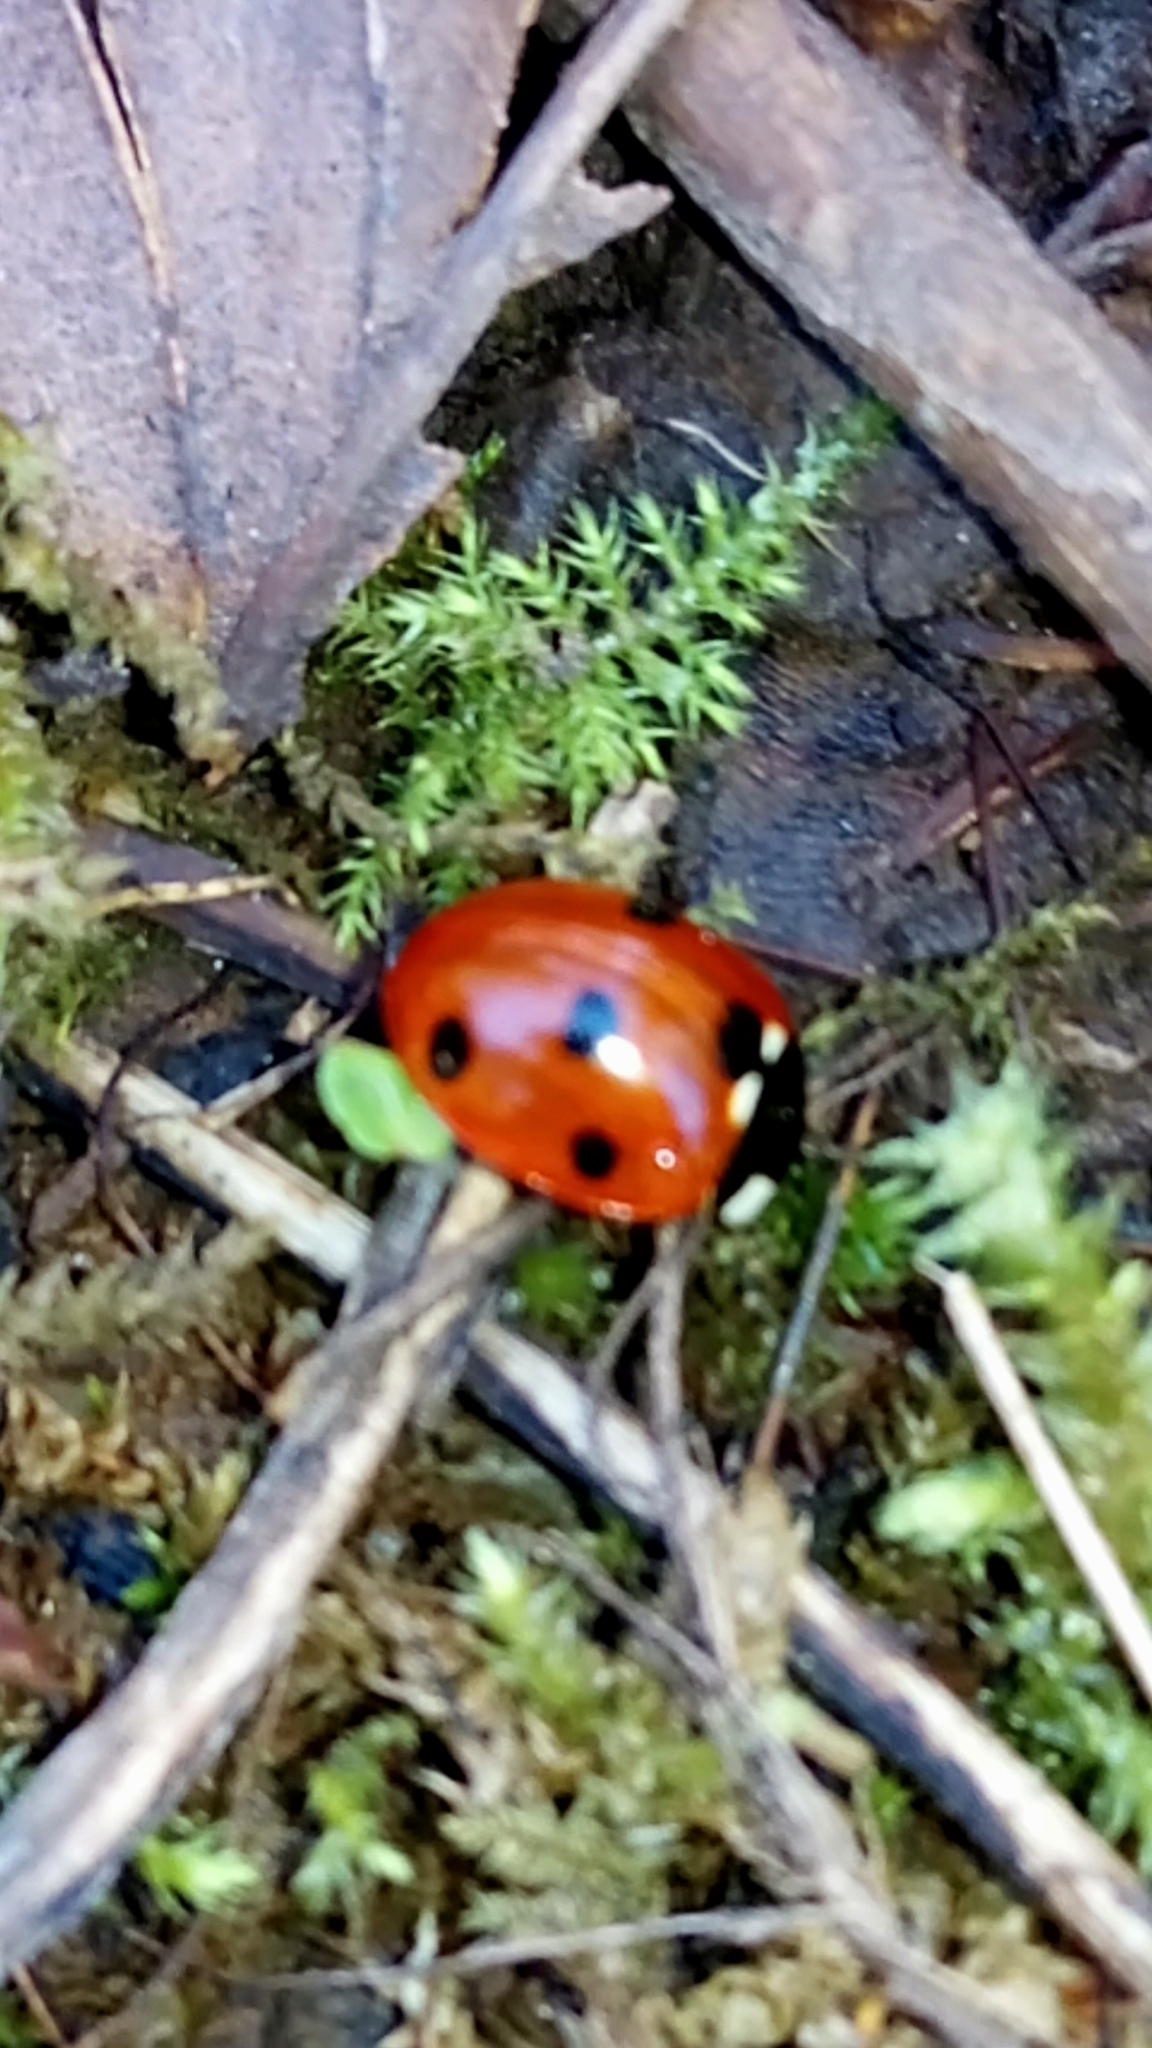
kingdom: Animalia
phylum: Arthropoda
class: Insecta
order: Coleoptera
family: Coccinellidae
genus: Coccinella
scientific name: Coccinella septempunctata
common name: Sevenspotted lady beetle
